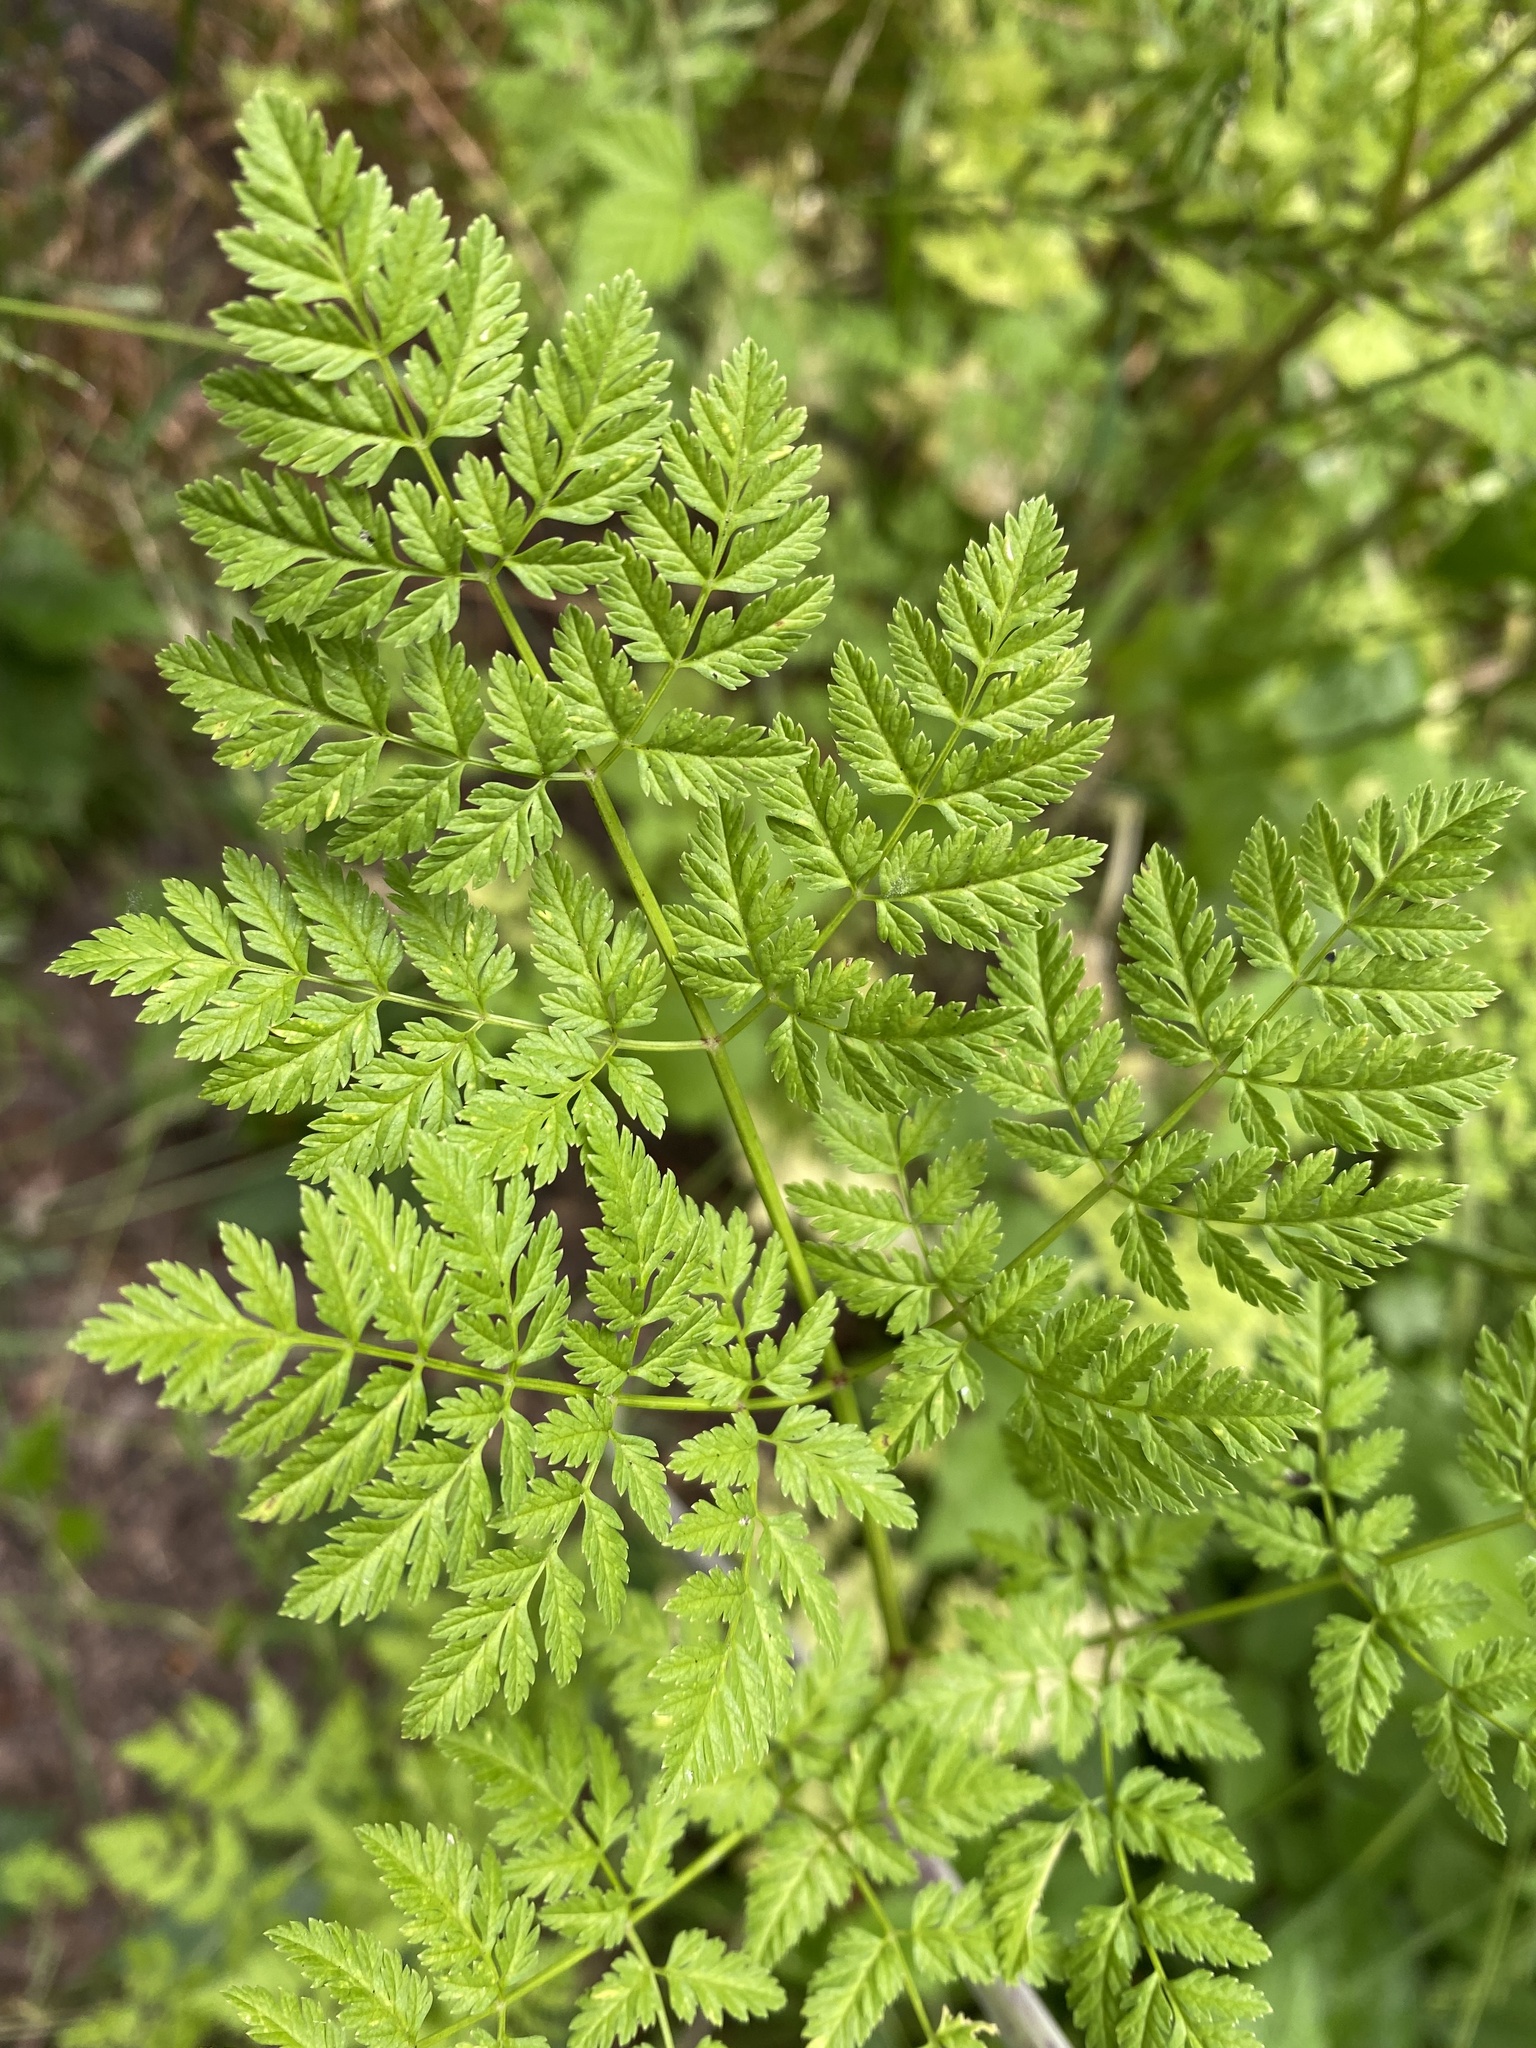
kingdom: Plantae
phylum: Tracheophyta
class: Magnoliopsida
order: Apiales
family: Apiaceae
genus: Conium
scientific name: Conium maculatum
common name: Hemlock
